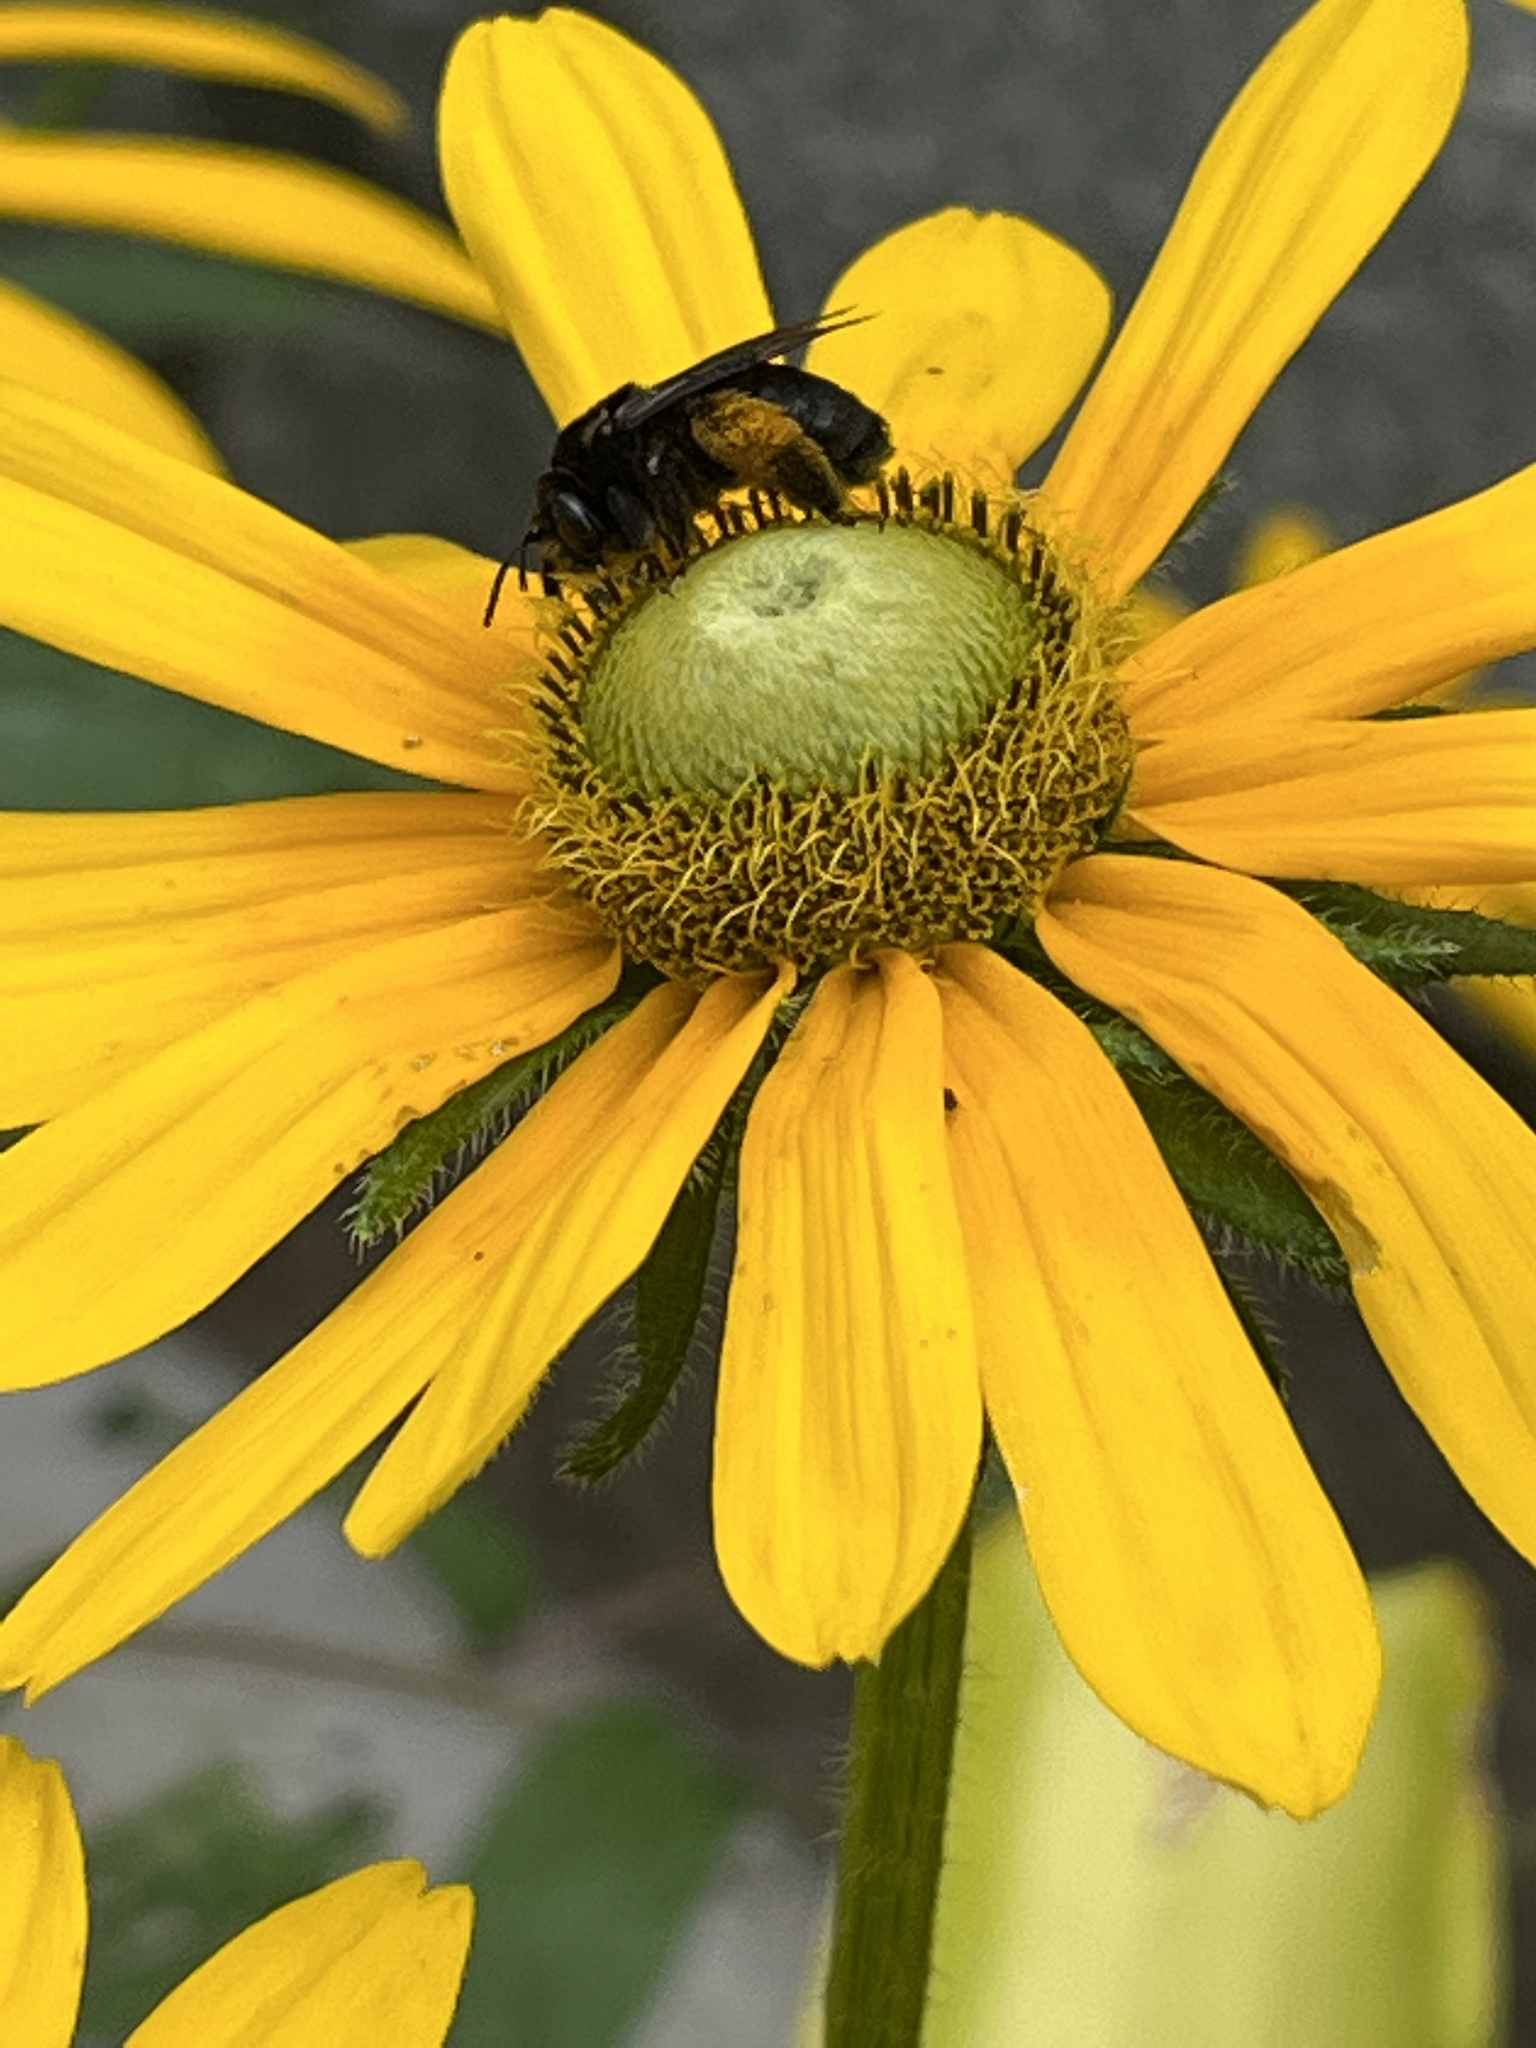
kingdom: Animalia
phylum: Arthropoda
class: Insecta
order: Hymenoptera
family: Apidae
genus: Melissodes
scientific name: Melissodes bimaculatus
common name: Two-spotted long-horned bee
